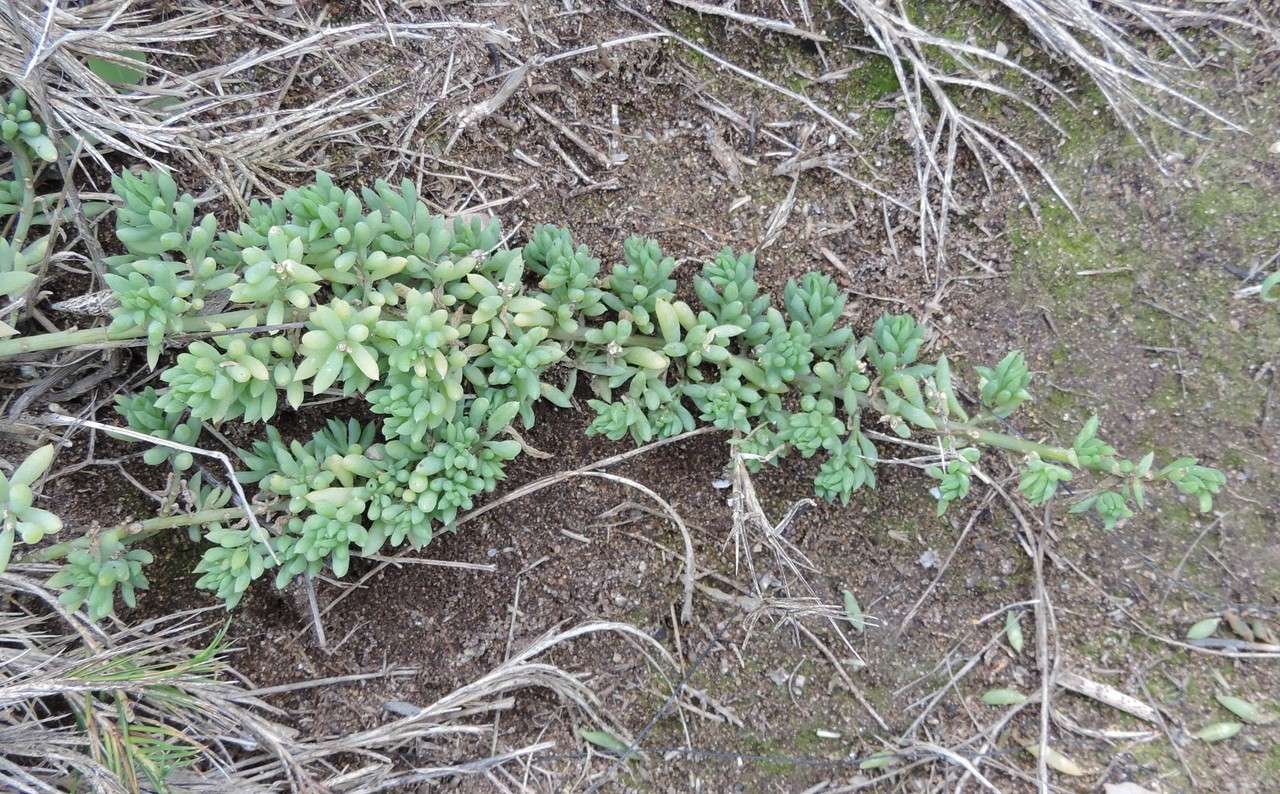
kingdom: Plantae
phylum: Tracheophyta
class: Magnoliopsida
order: Caryophyllales
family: Amaranthaceae
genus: Threlkeldia
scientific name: Threlkeldia diffusa
